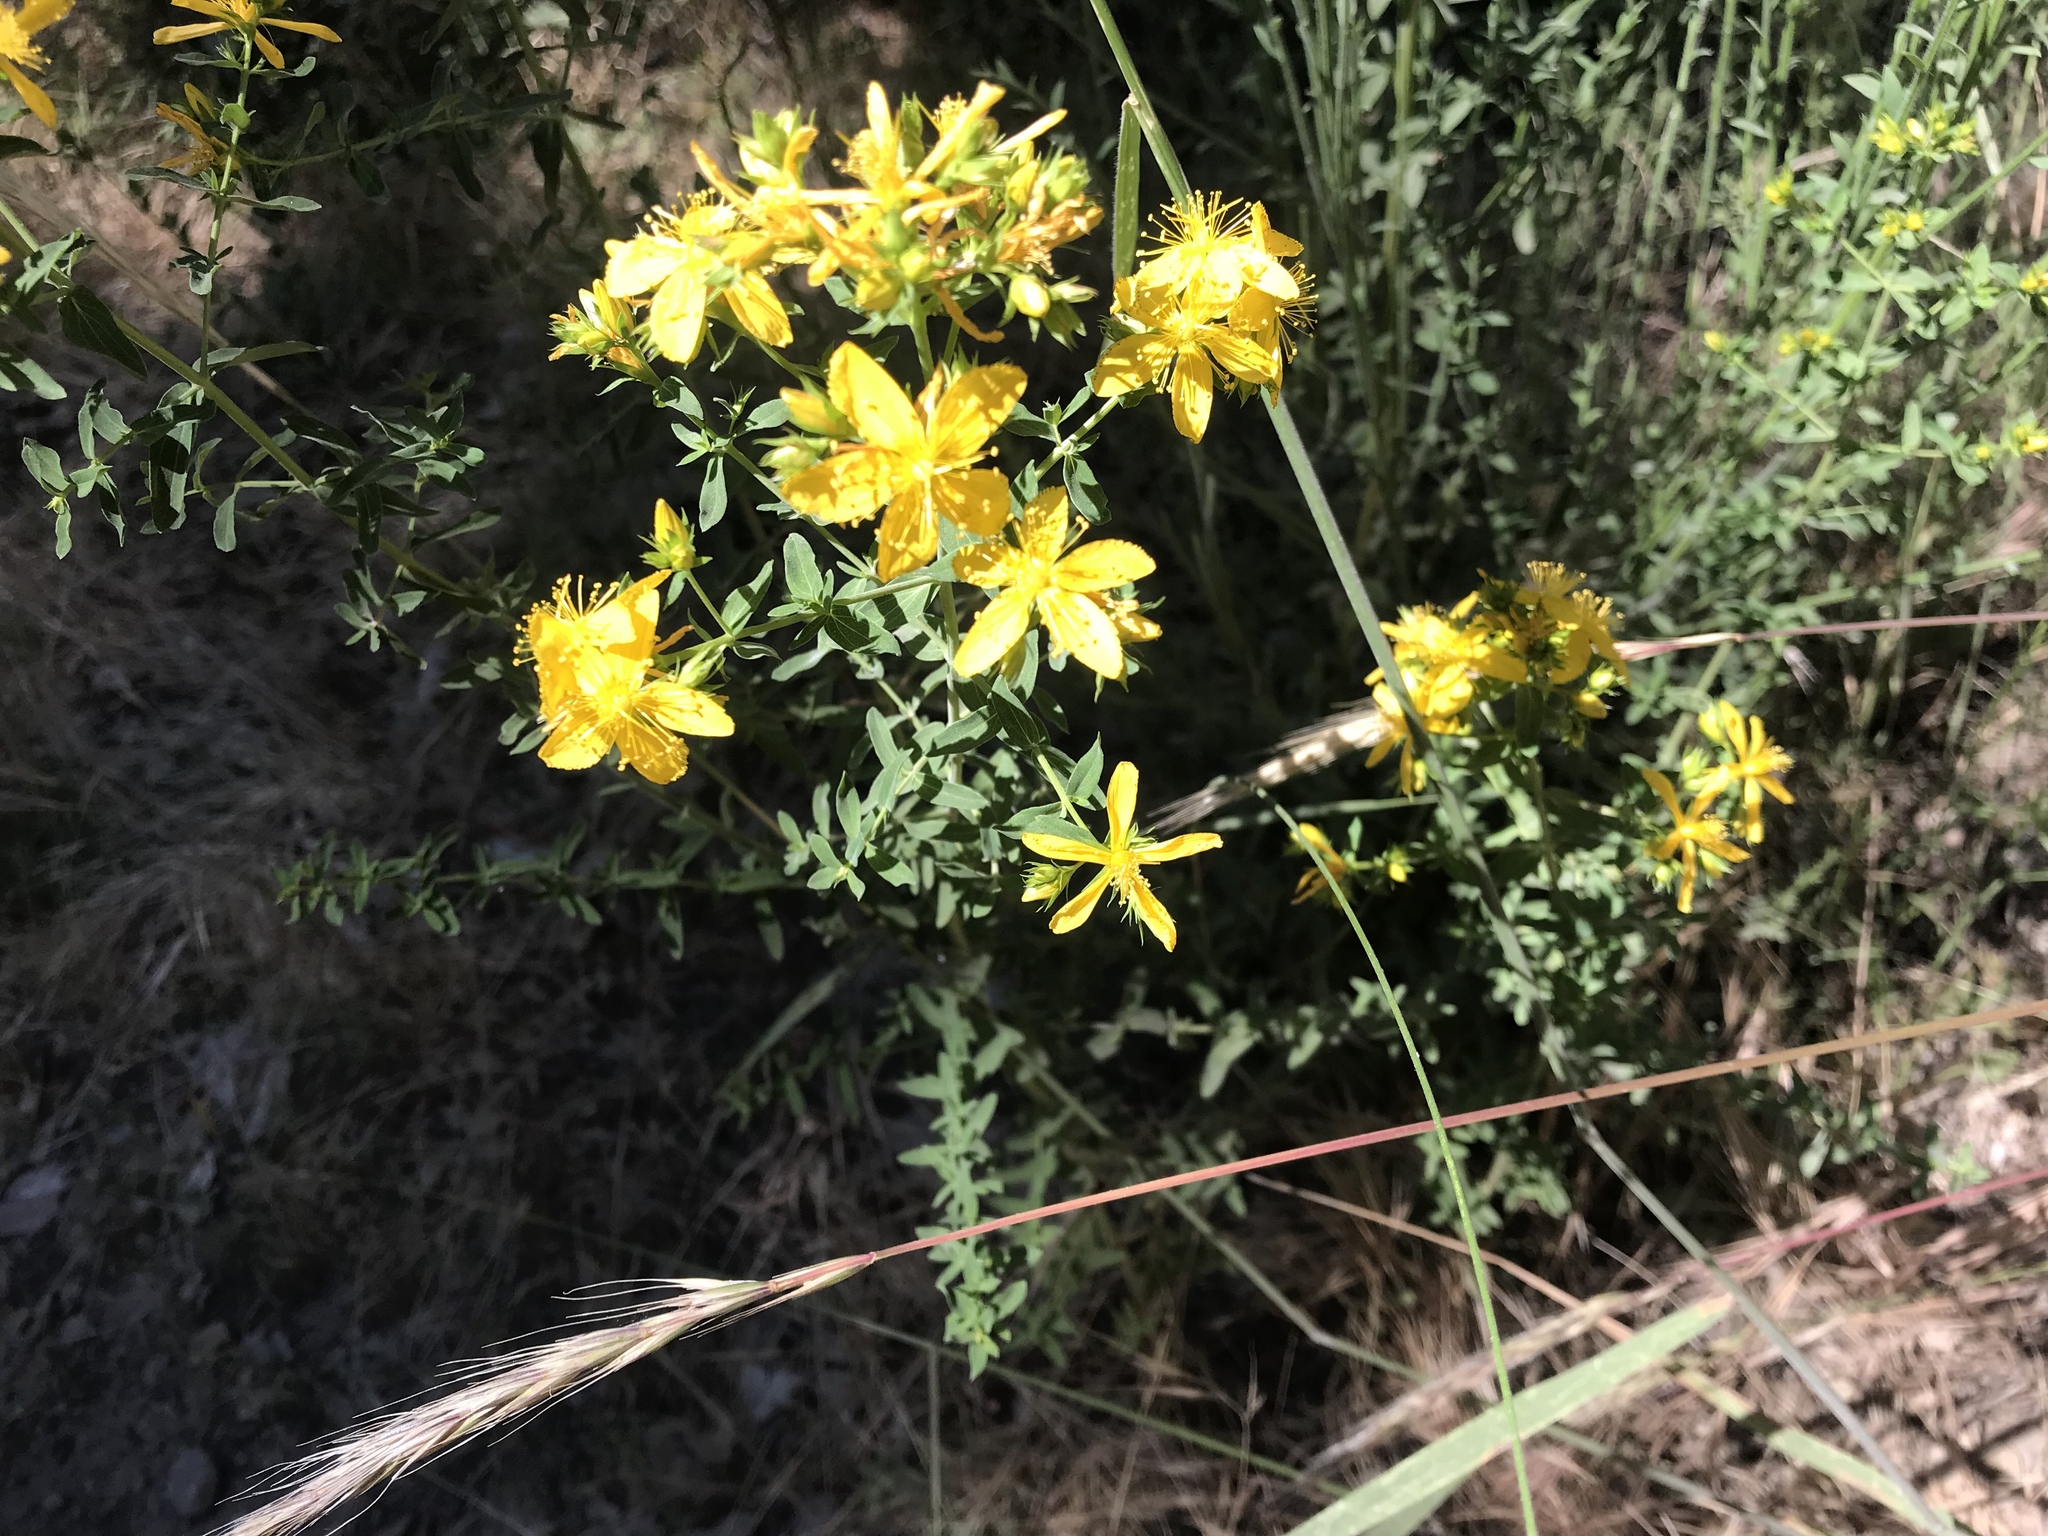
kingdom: Plantae
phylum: Tracheophyta
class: Magnoliopsida
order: Malpighiales
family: Hypericaceae
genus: Hypericum
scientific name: Hypericum perforatum
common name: Common st. johnswort
